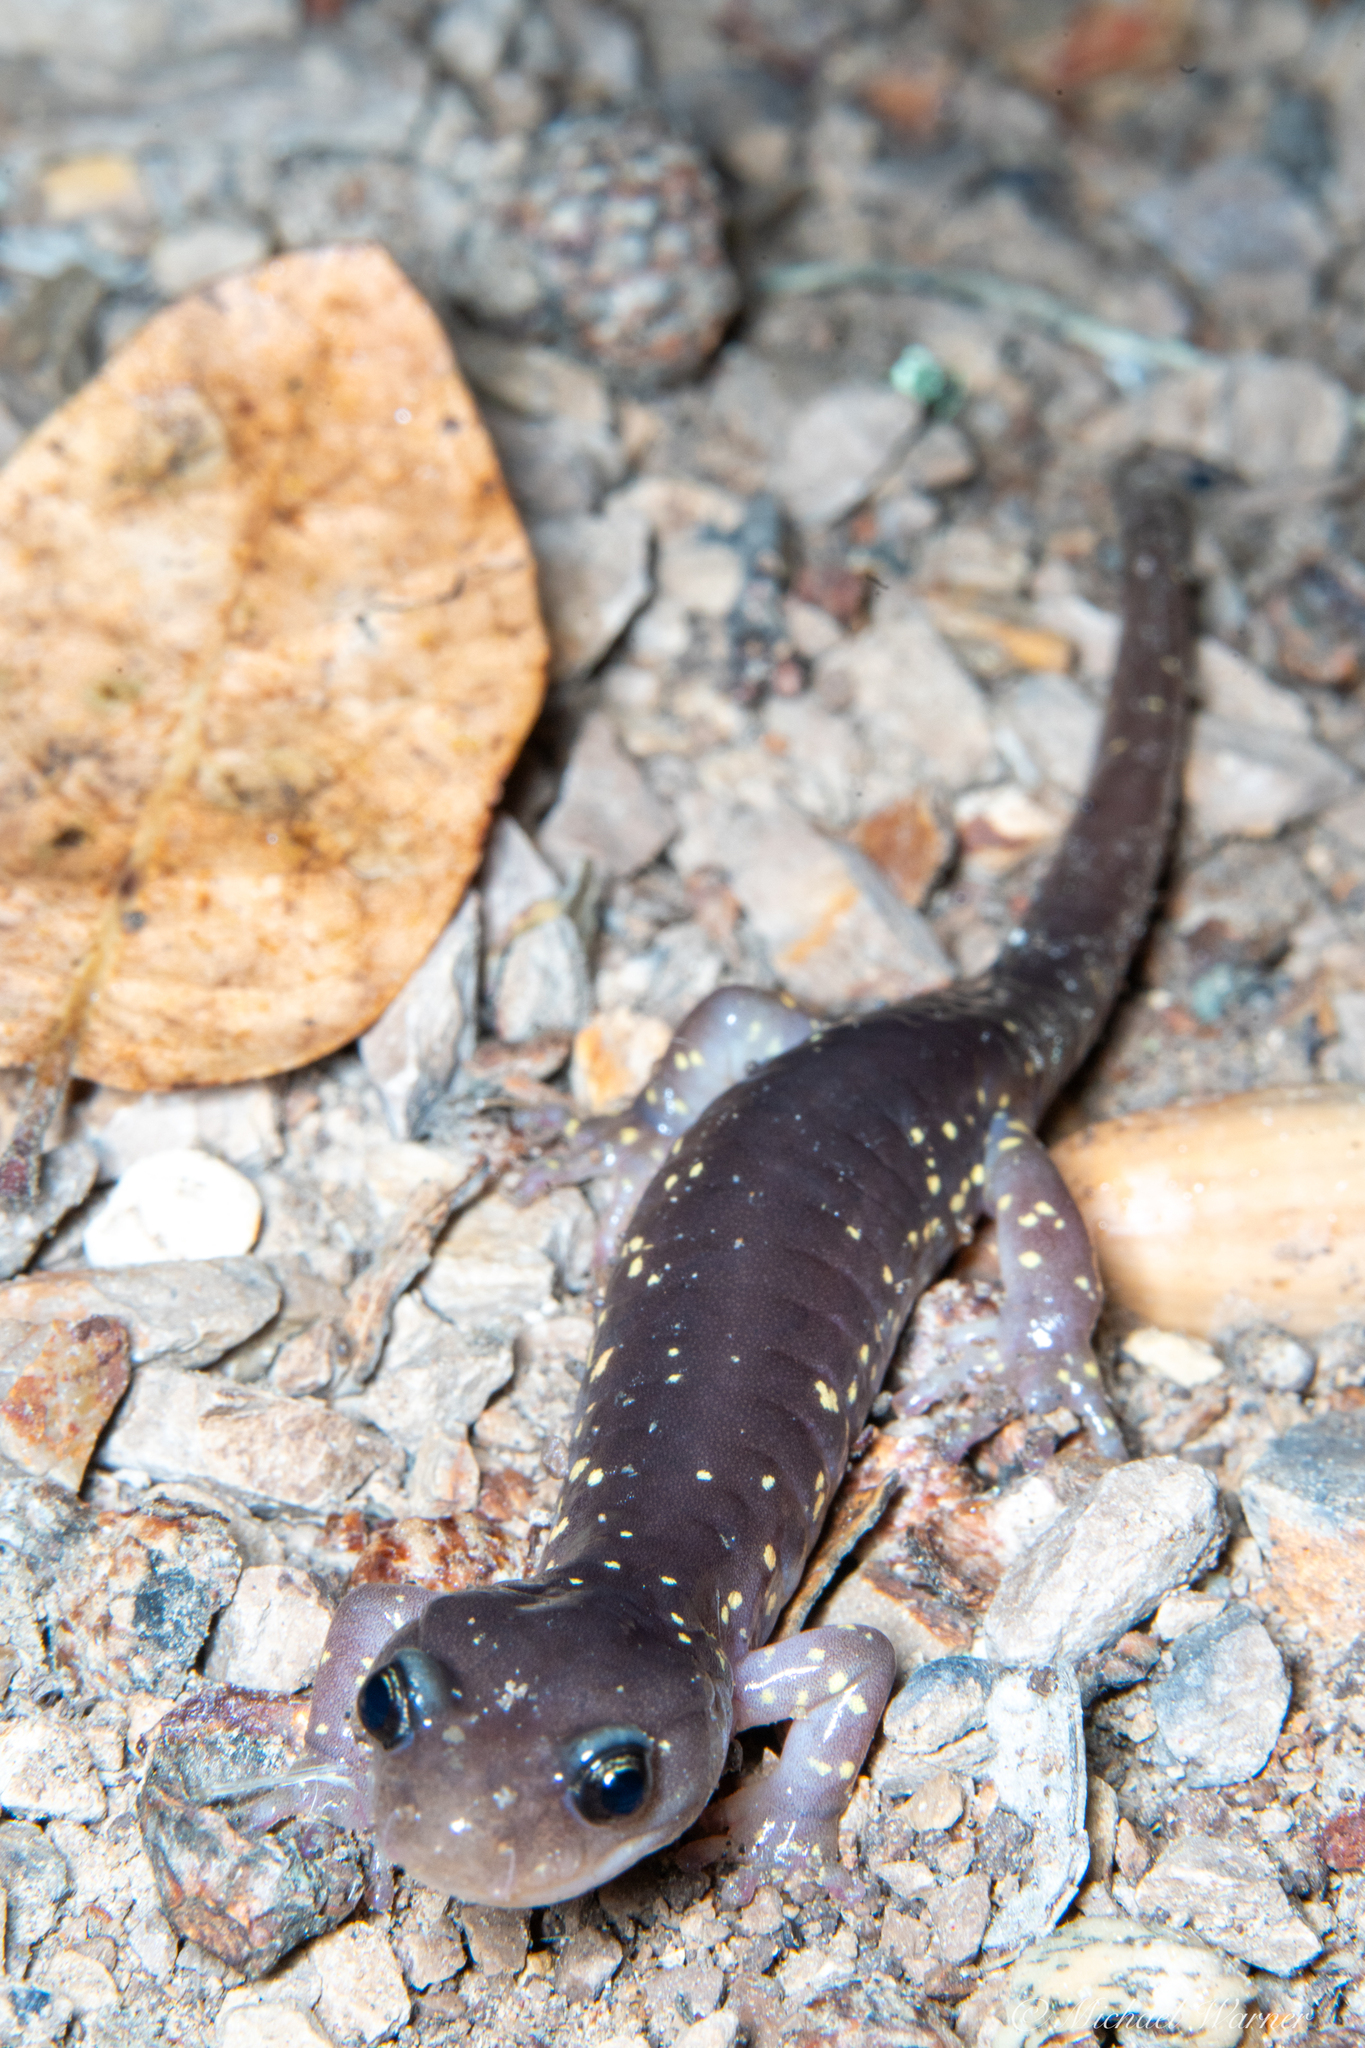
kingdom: Animalia
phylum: Chordata
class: Amphibia
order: Caudata
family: Plethodontidae
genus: Aneides
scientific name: Aneides lugubris
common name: Arboreal salamander
